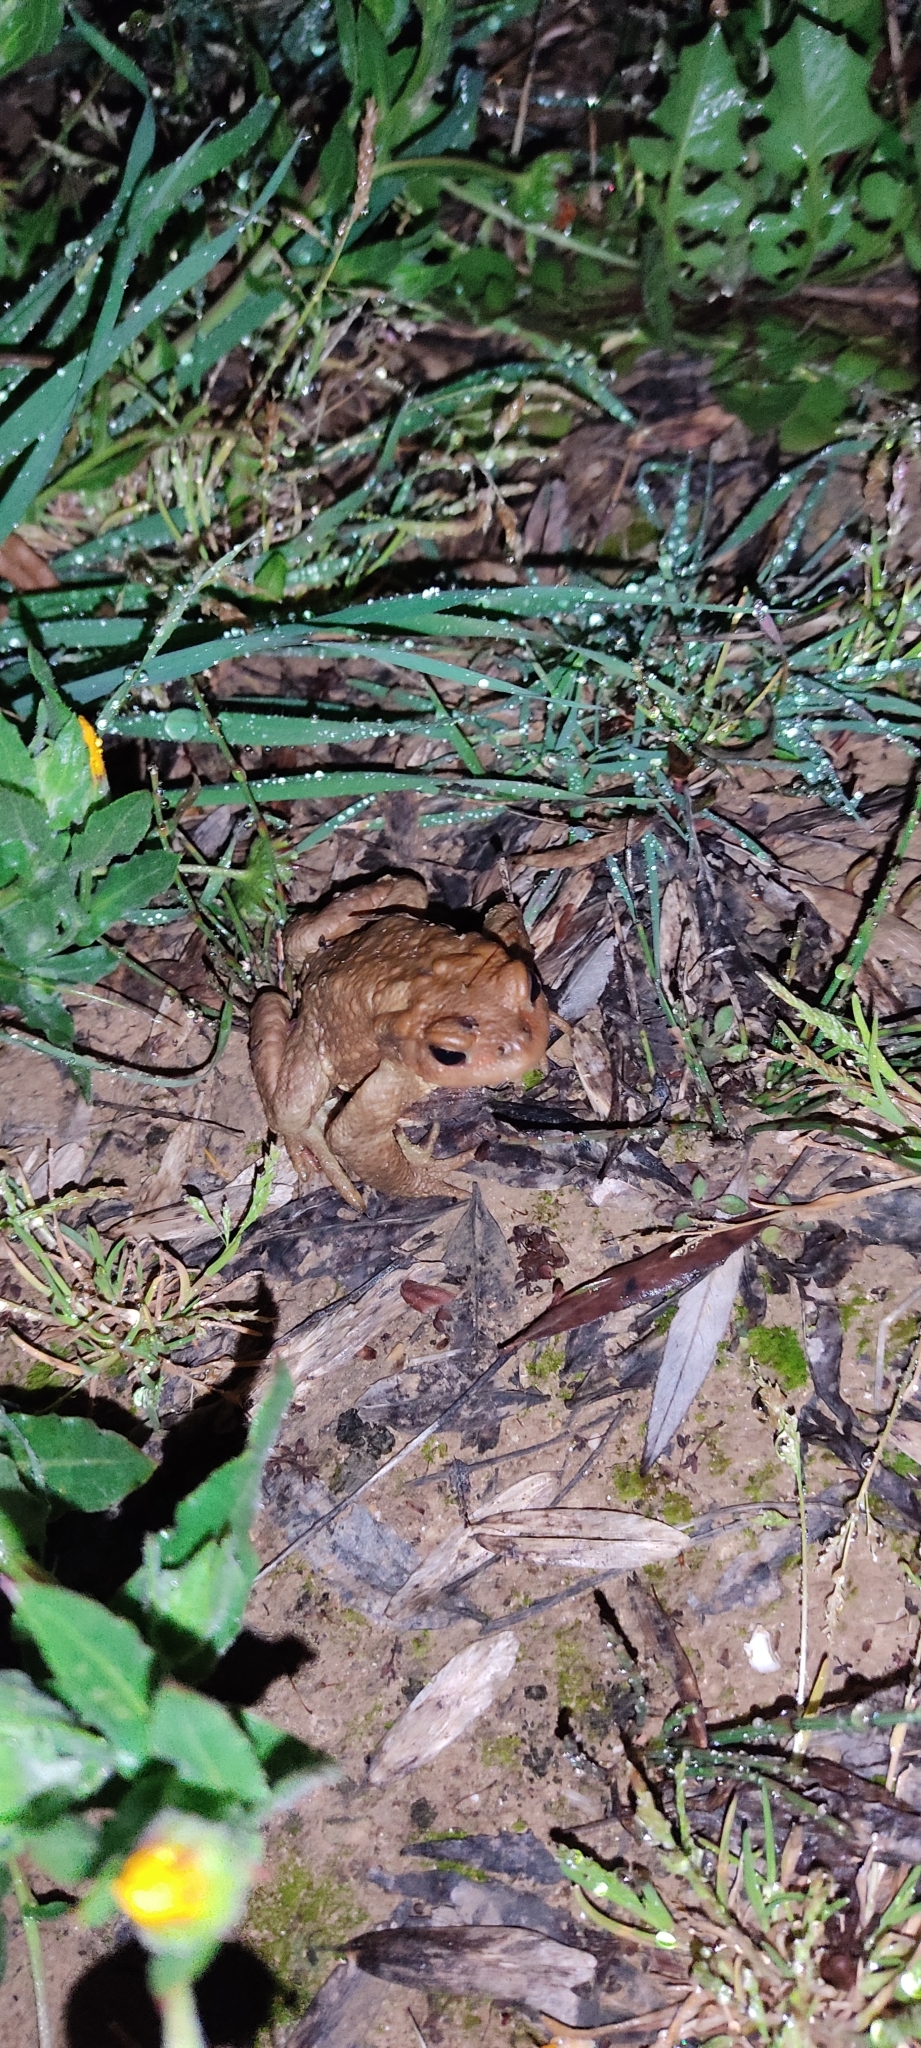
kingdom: Animalia
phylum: Chordata
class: Amphibia
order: Anura
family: Bufonidae
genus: Bufo
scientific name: Bufo spinosus
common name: Western common toad
